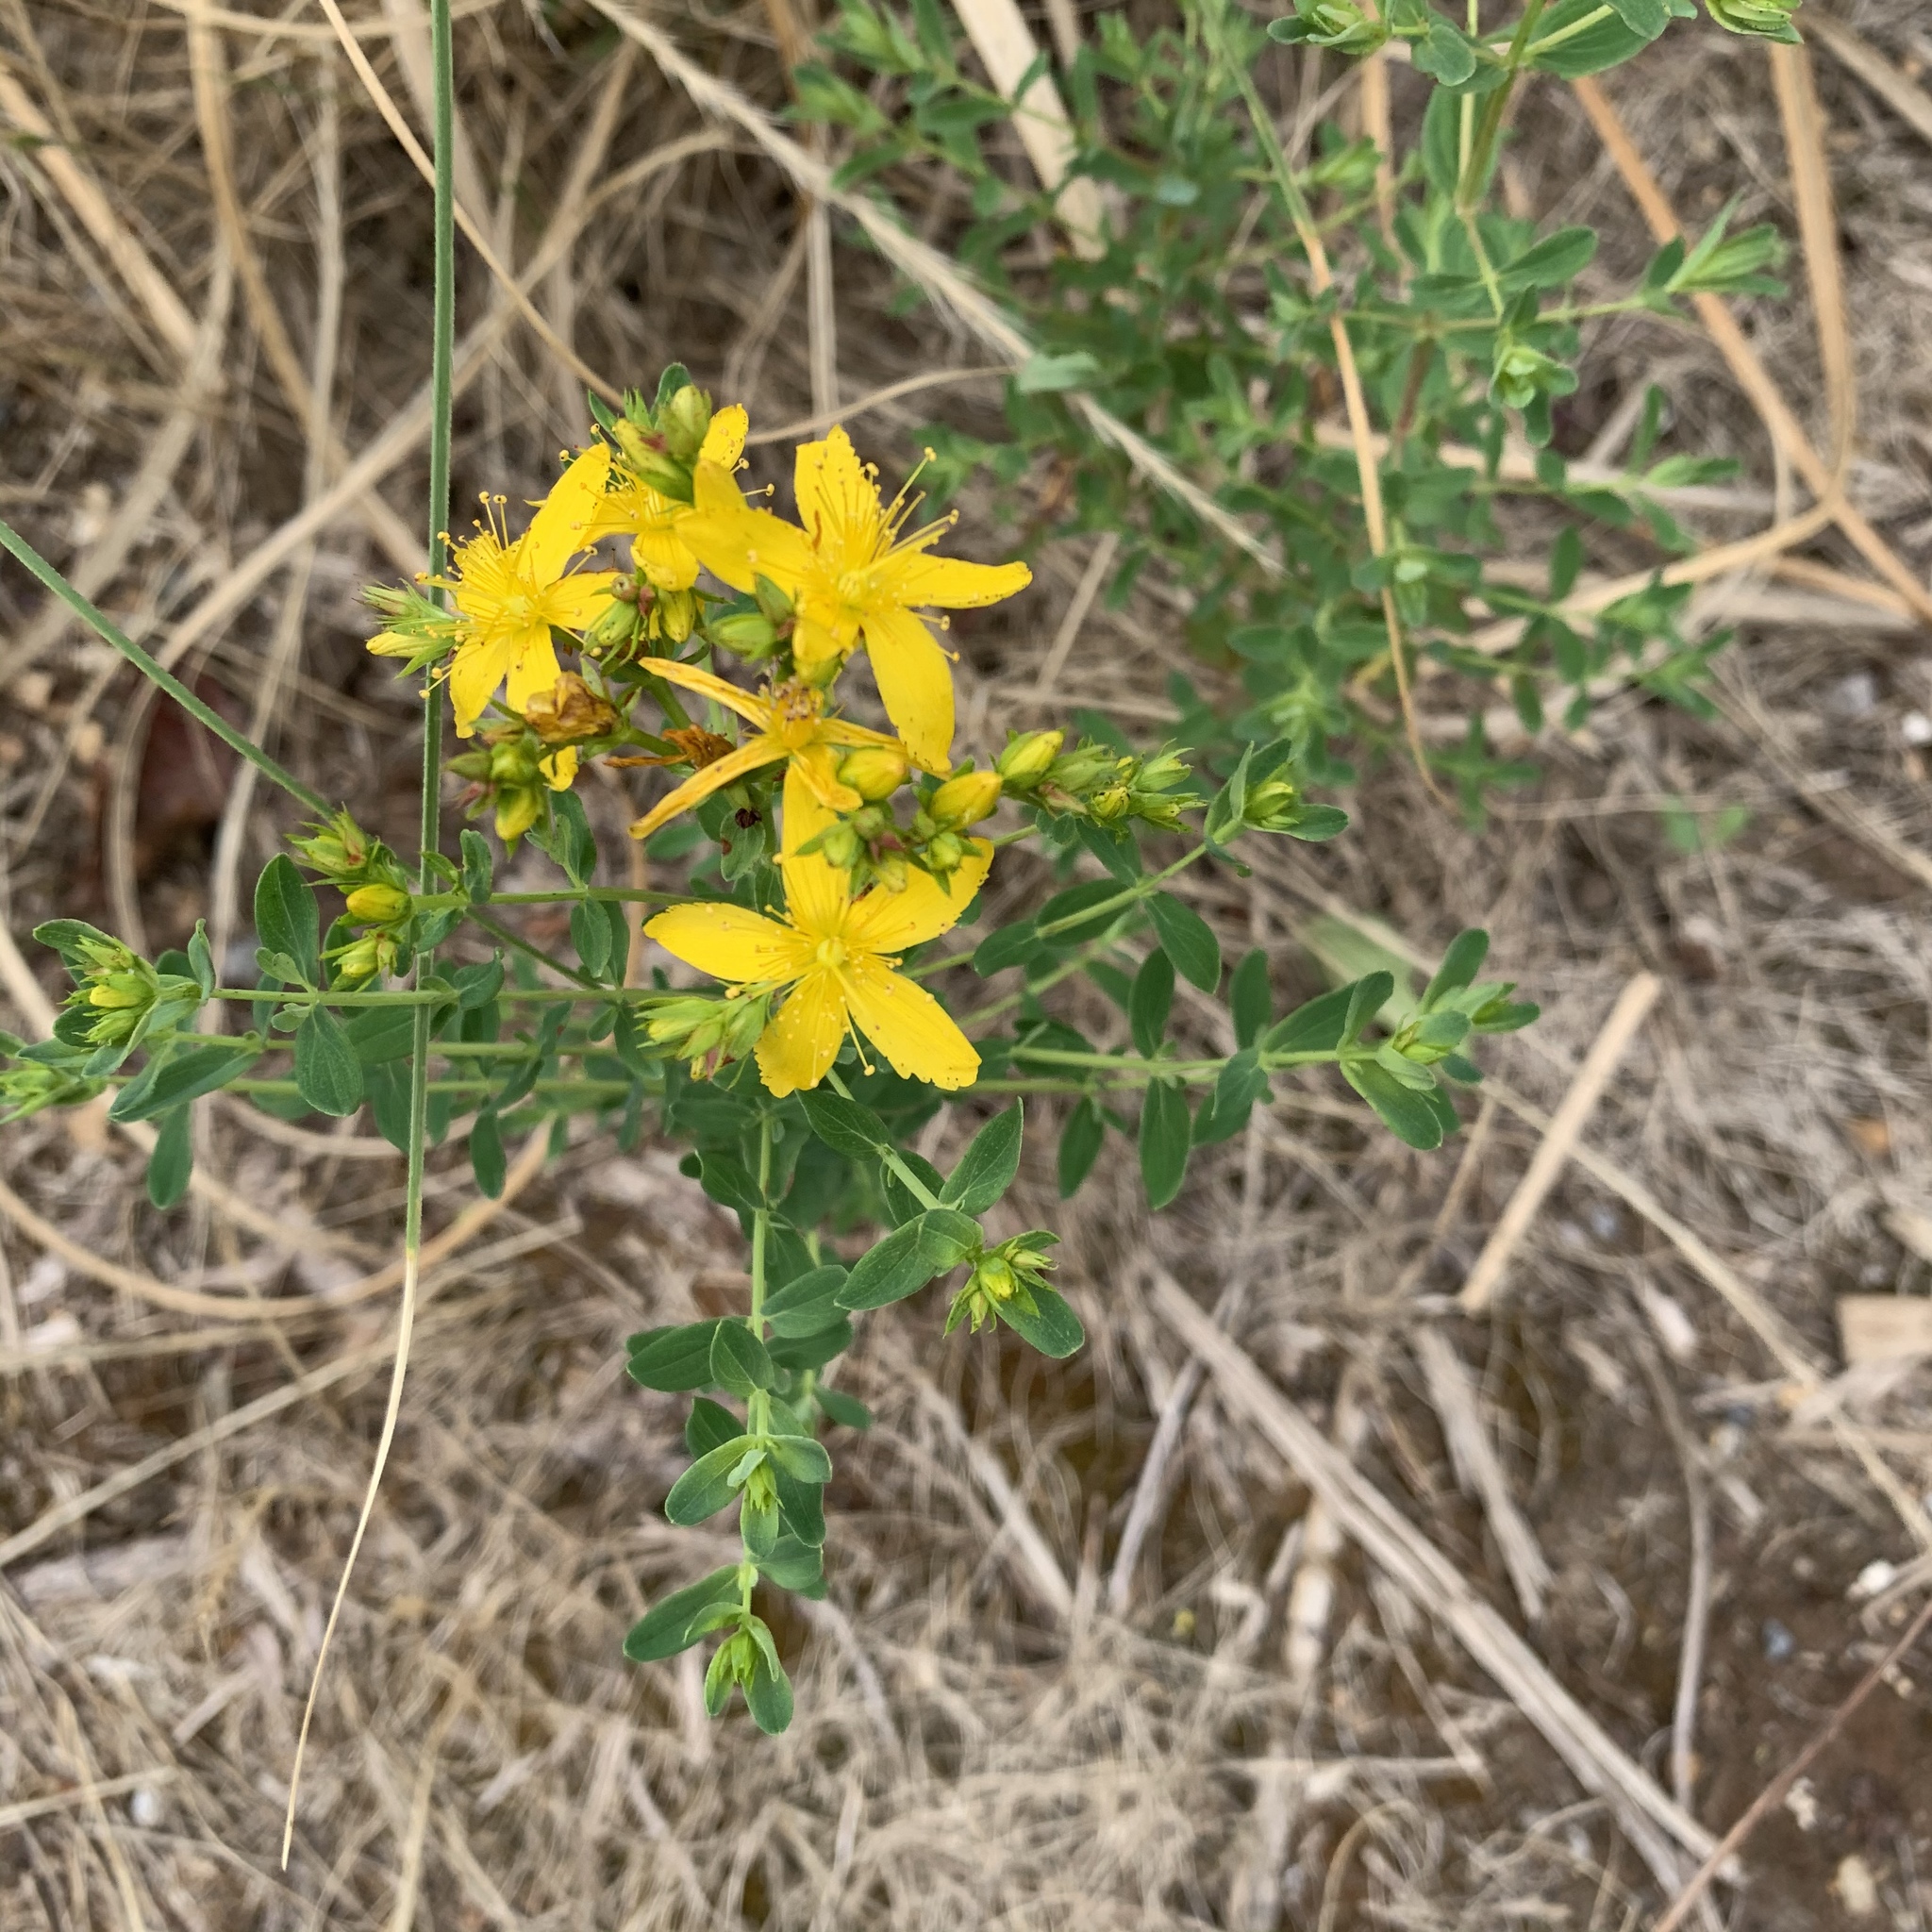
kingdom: Plantae
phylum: Tracheophyta
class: Magnoliopsida
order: Malpighiales
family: Hypericaceae
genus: Hypericum
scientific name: Hypericum perforatum
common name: Common st. johnswort
